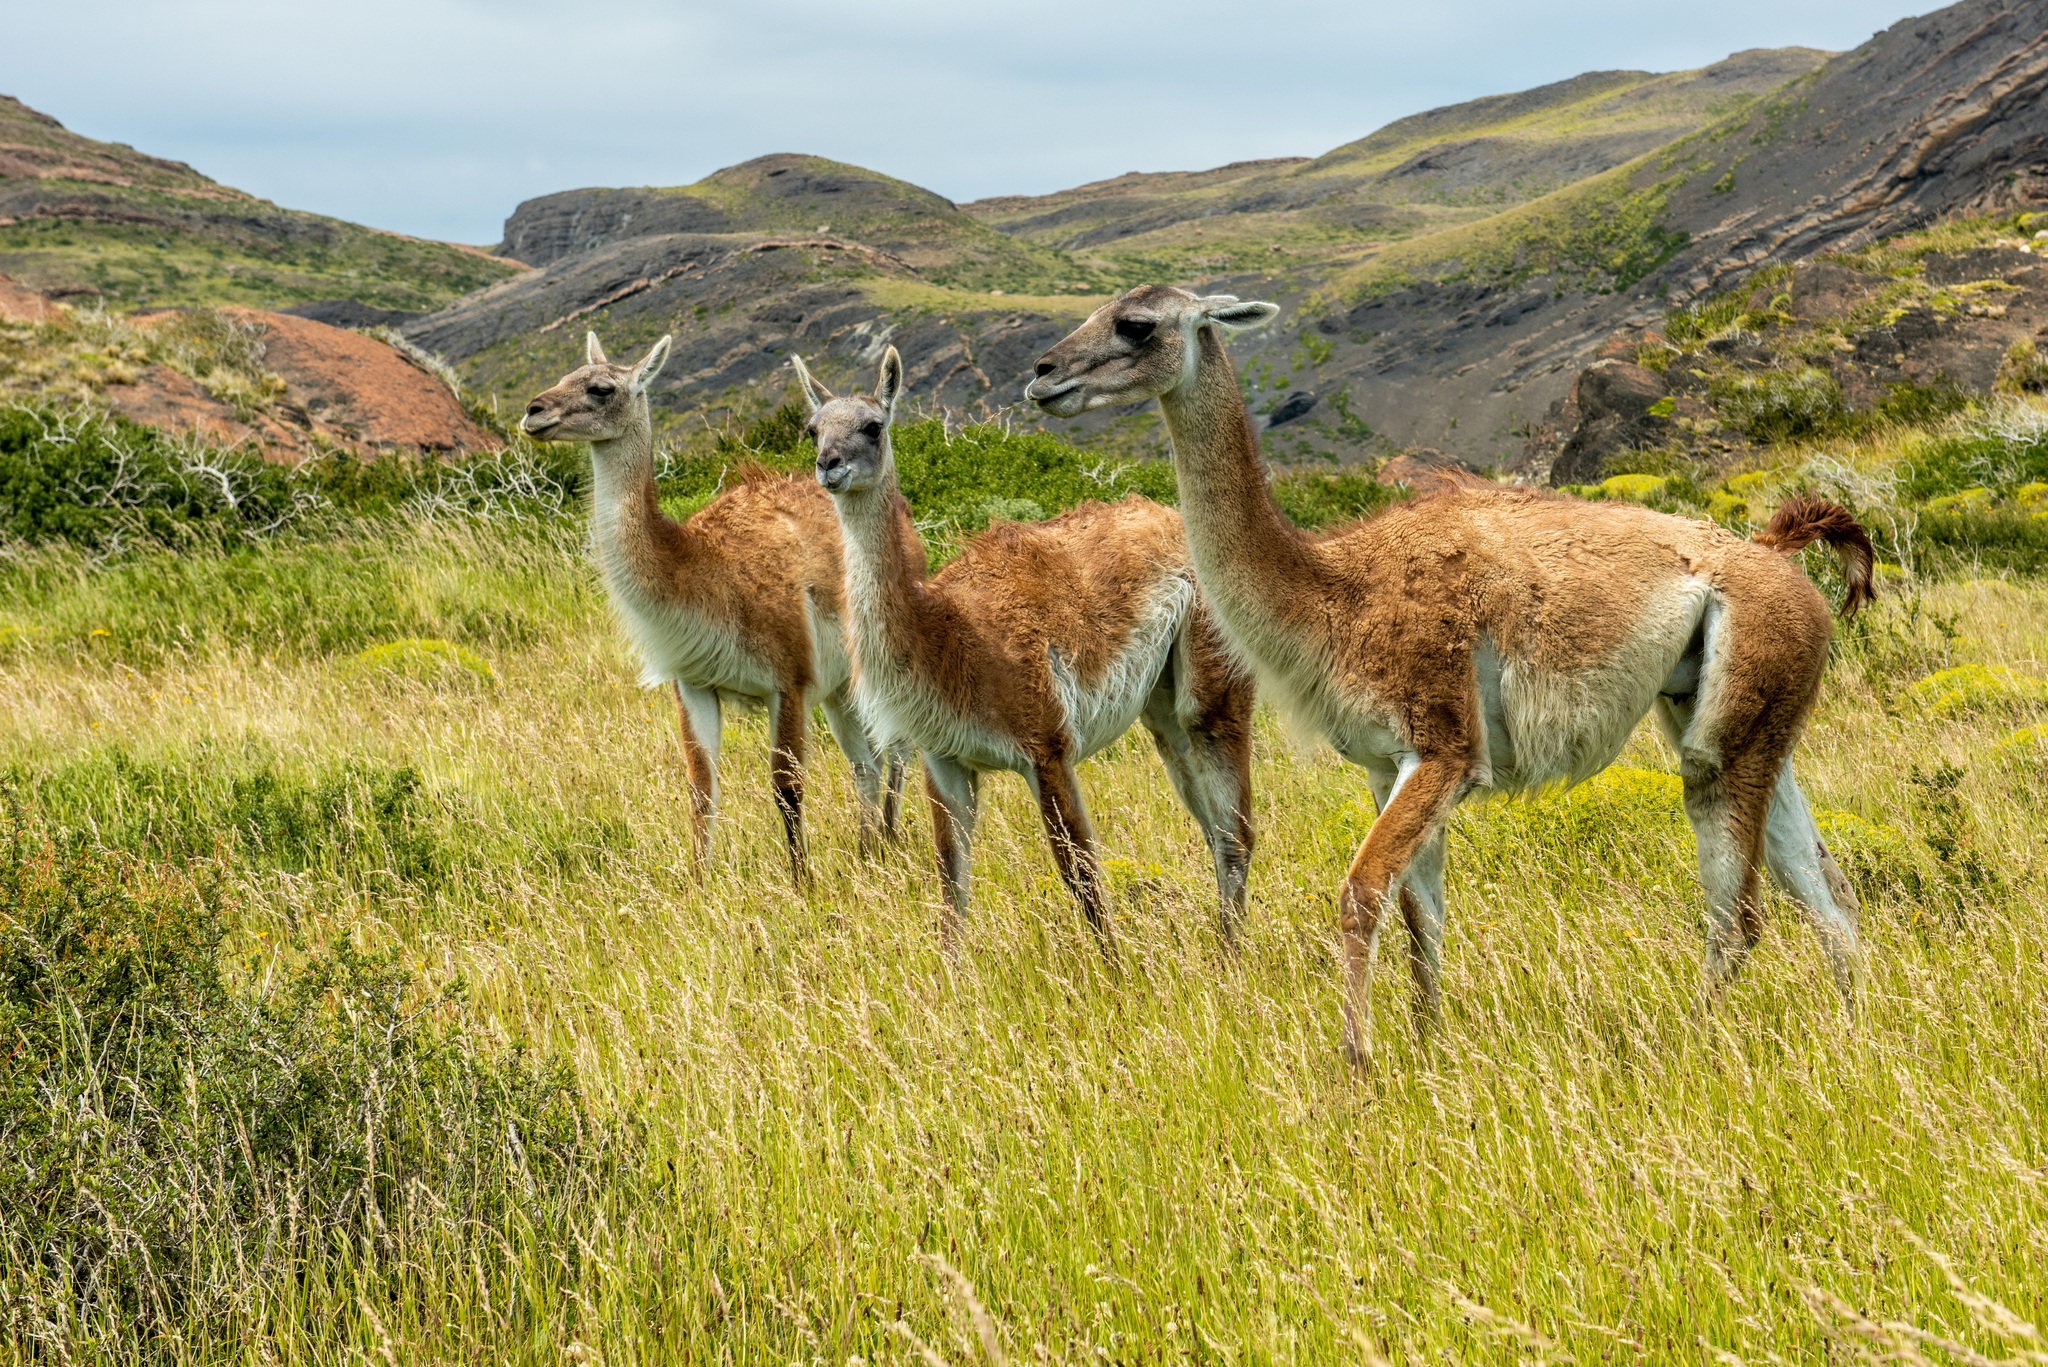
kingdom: Animalia
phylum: Chordata
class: Mammalia
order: Artiodactyla
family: Camelidae
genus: Lama
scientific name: Lama glama
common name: Llama
